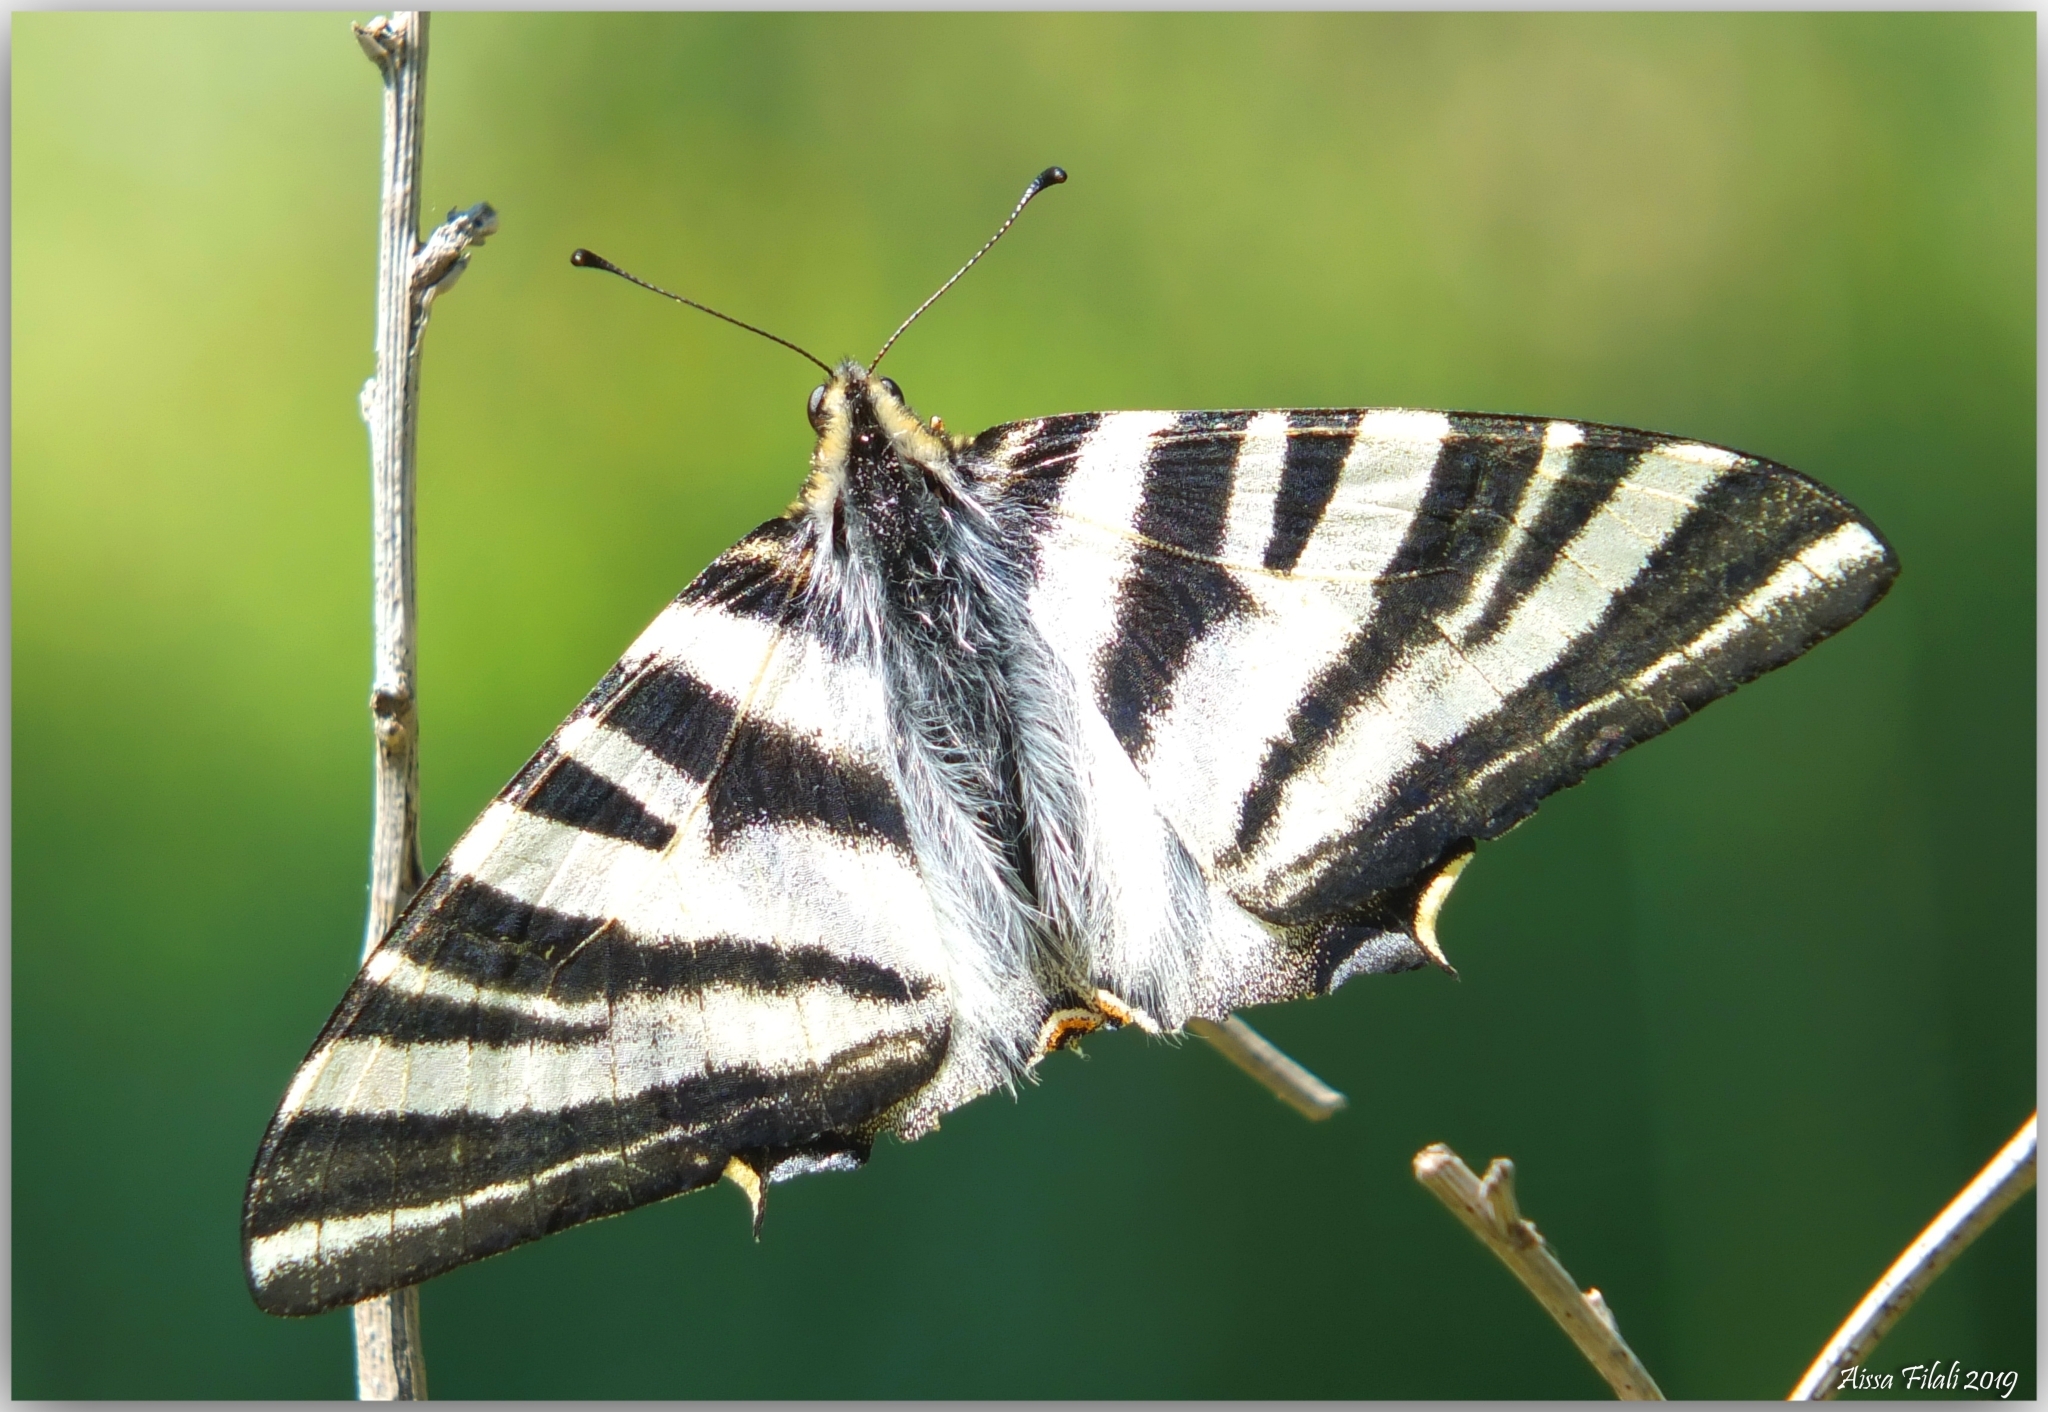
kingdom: Animalia
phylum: Arthropoda
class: Insecta
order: Lepidoptera
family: Papilionidae
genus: Iphiclides
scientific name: Iphiclides feisthamelii
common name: Iberian scarce swallowtail
